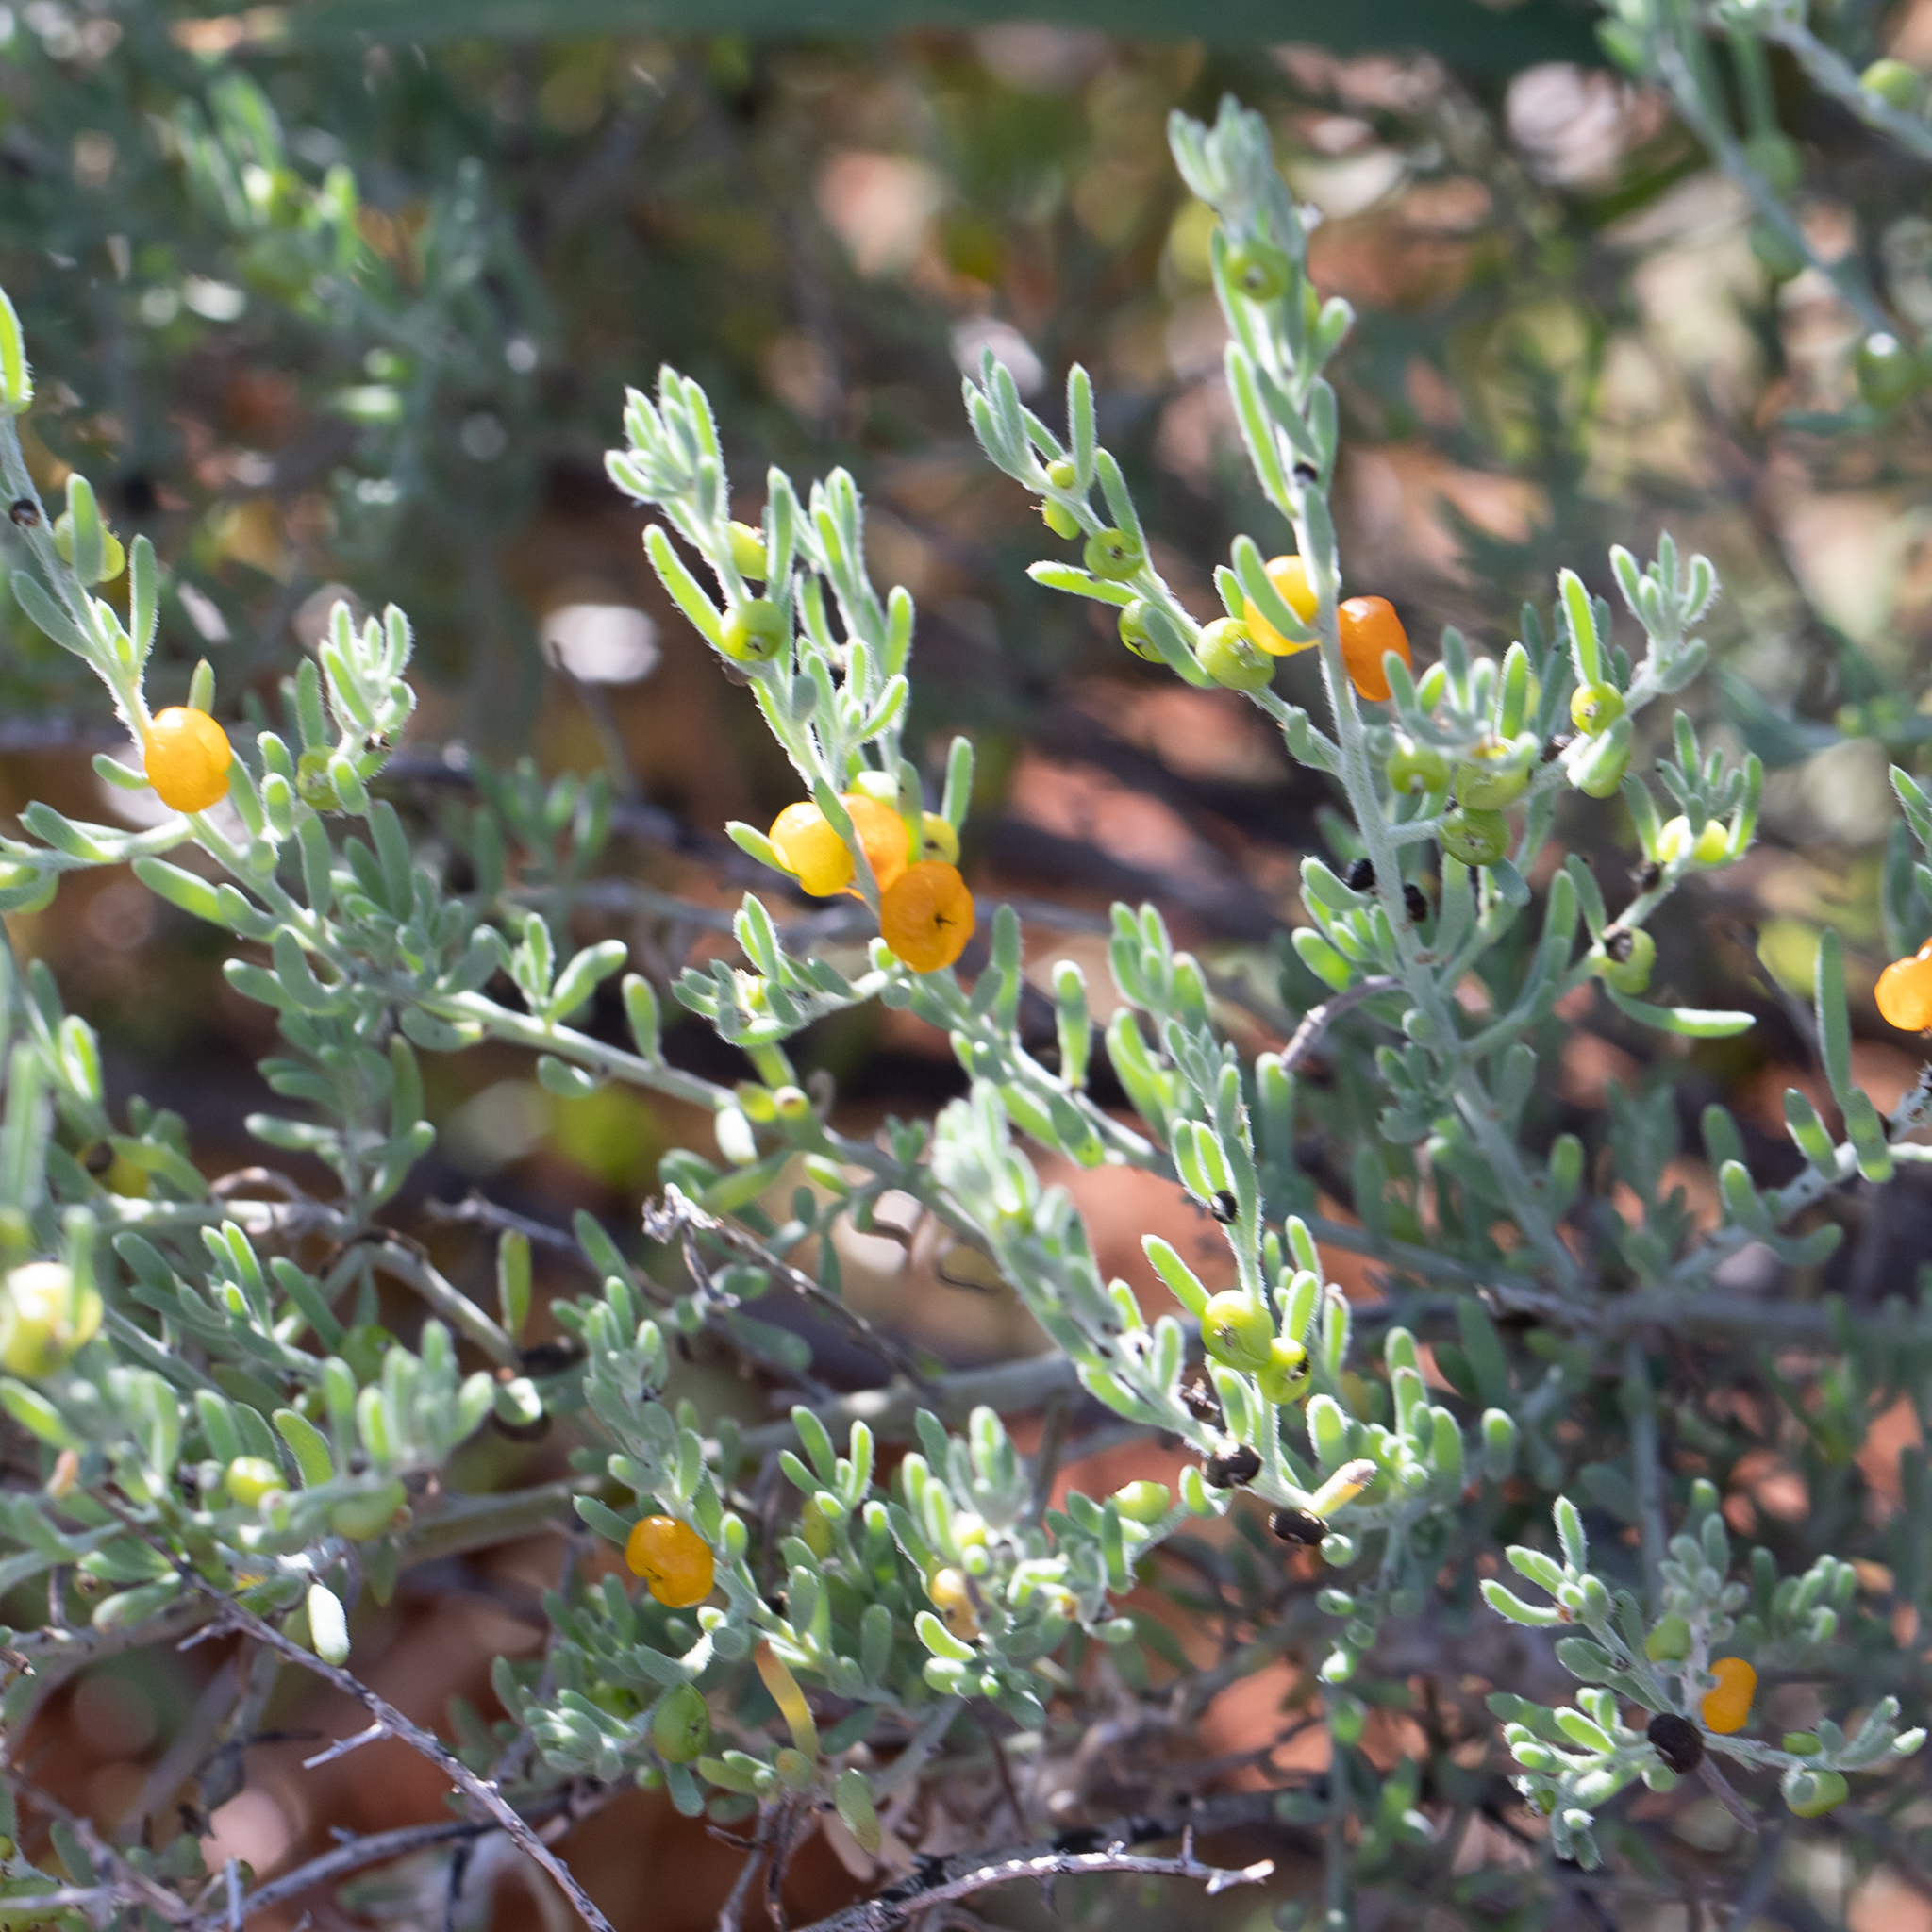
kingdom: Plantae
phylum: Tracheophyta
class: Magnoliopsida
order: Caryophyllales
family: Amaranthaceae
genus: Enchylaena
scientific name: Enchylaena tomentosa
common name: Ruby saltbush
